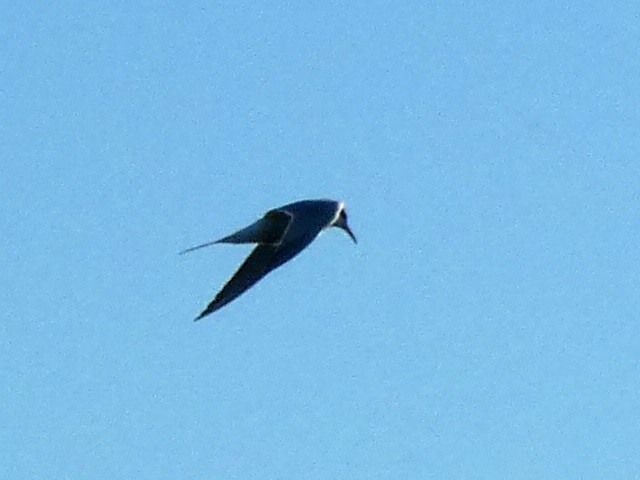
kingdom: Animalia
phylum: Chordata
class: Aves
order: Charadriiformes
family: Laridae
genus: Sterna
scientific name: Sterna hirundo
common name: Common tern
